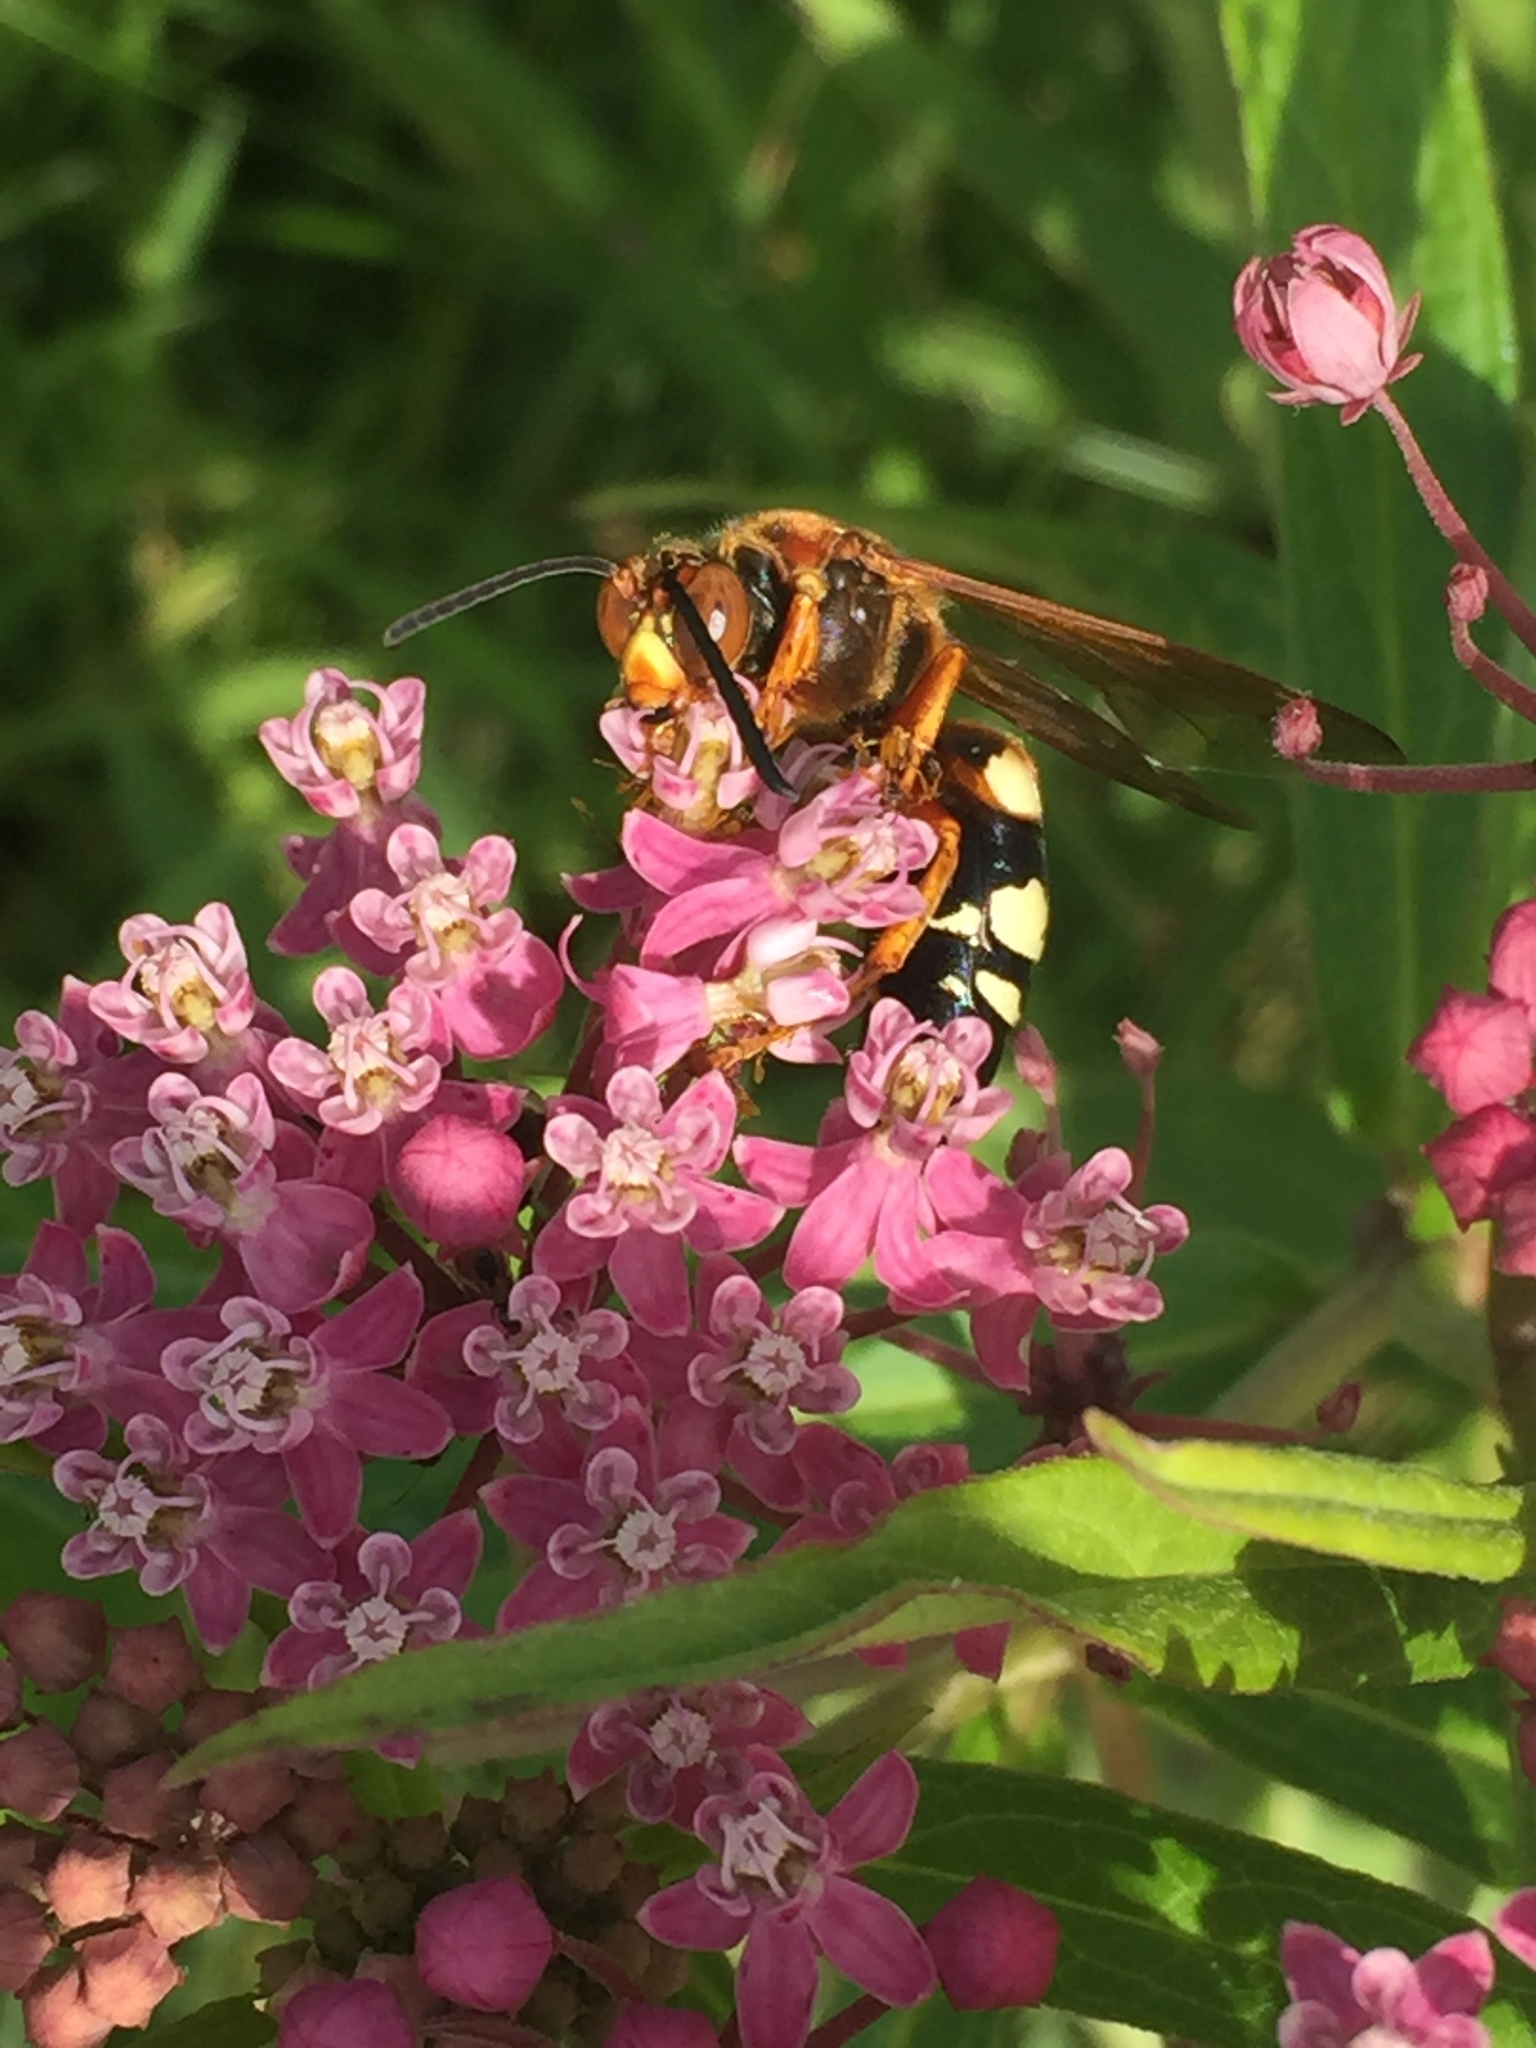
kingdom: Animalia
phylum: Arthropoda
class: Insecta
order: Hymenoptera
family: Crabronidae
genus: Sphecius
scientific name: Sphecius speciosus
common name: Cicada killer
